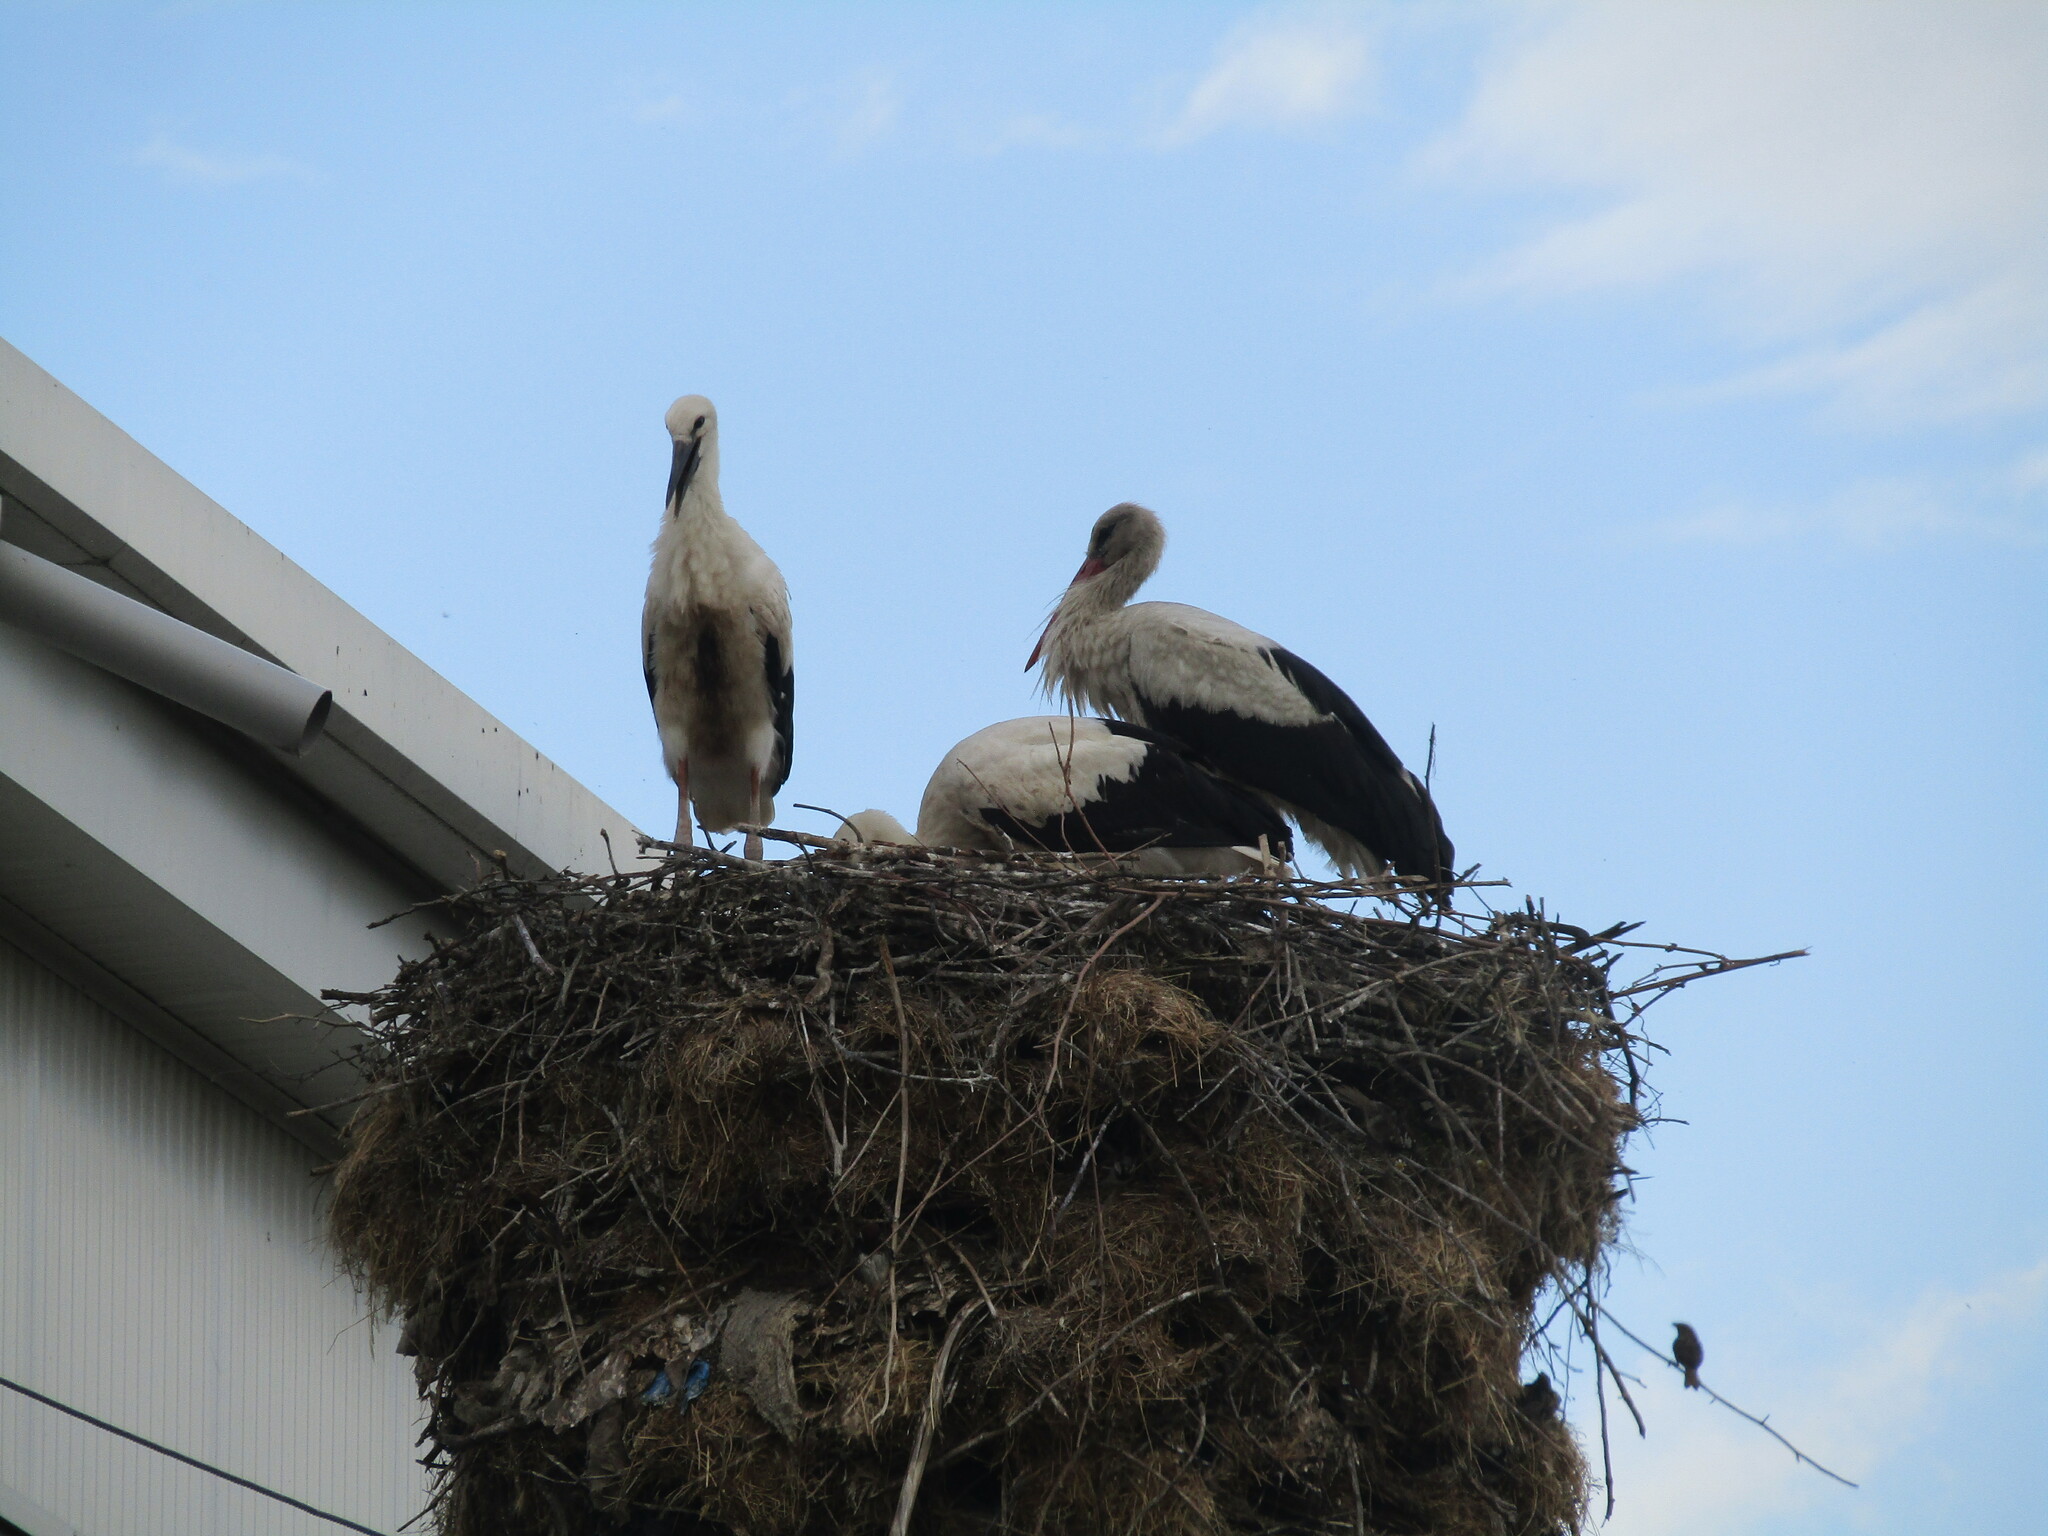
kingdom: Animalia
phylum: Chordata
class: Aves
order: Ciconiiformes
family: Ciconiidae
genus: Ciconia
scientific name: Ciconia ciconia
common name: White stork
